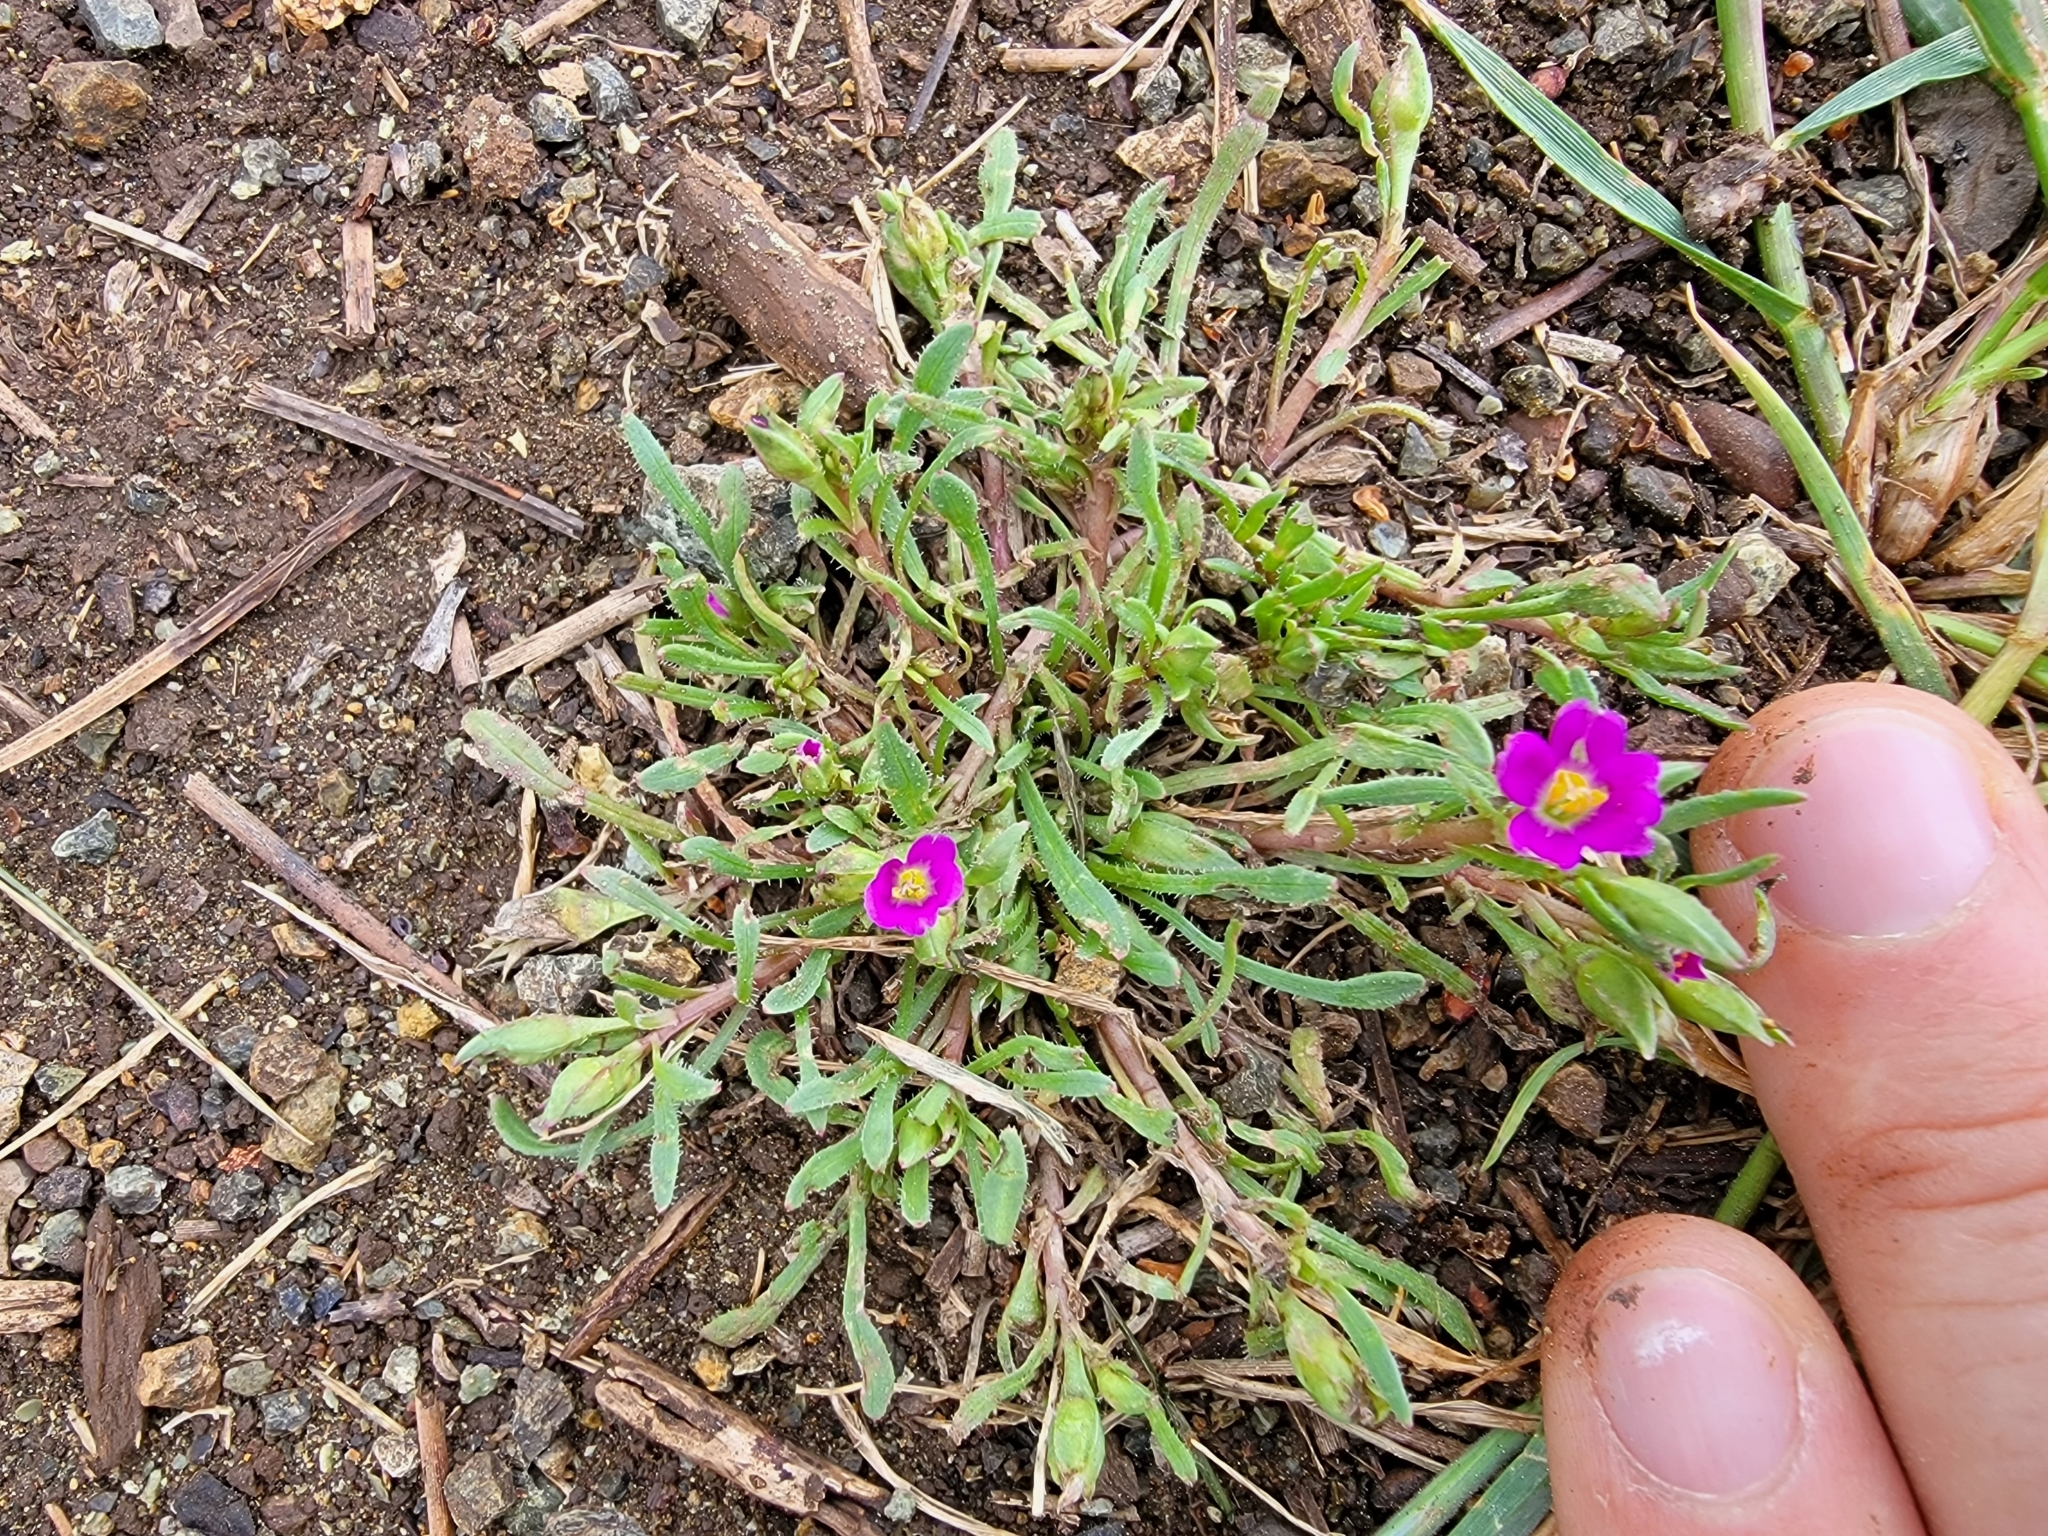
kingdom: Plantae
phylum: Tracheophyta
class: Magnoliopsida
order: Caryophyllales
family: Montiaceae
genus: Calandrinia
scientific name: Calandrinia menziesii
